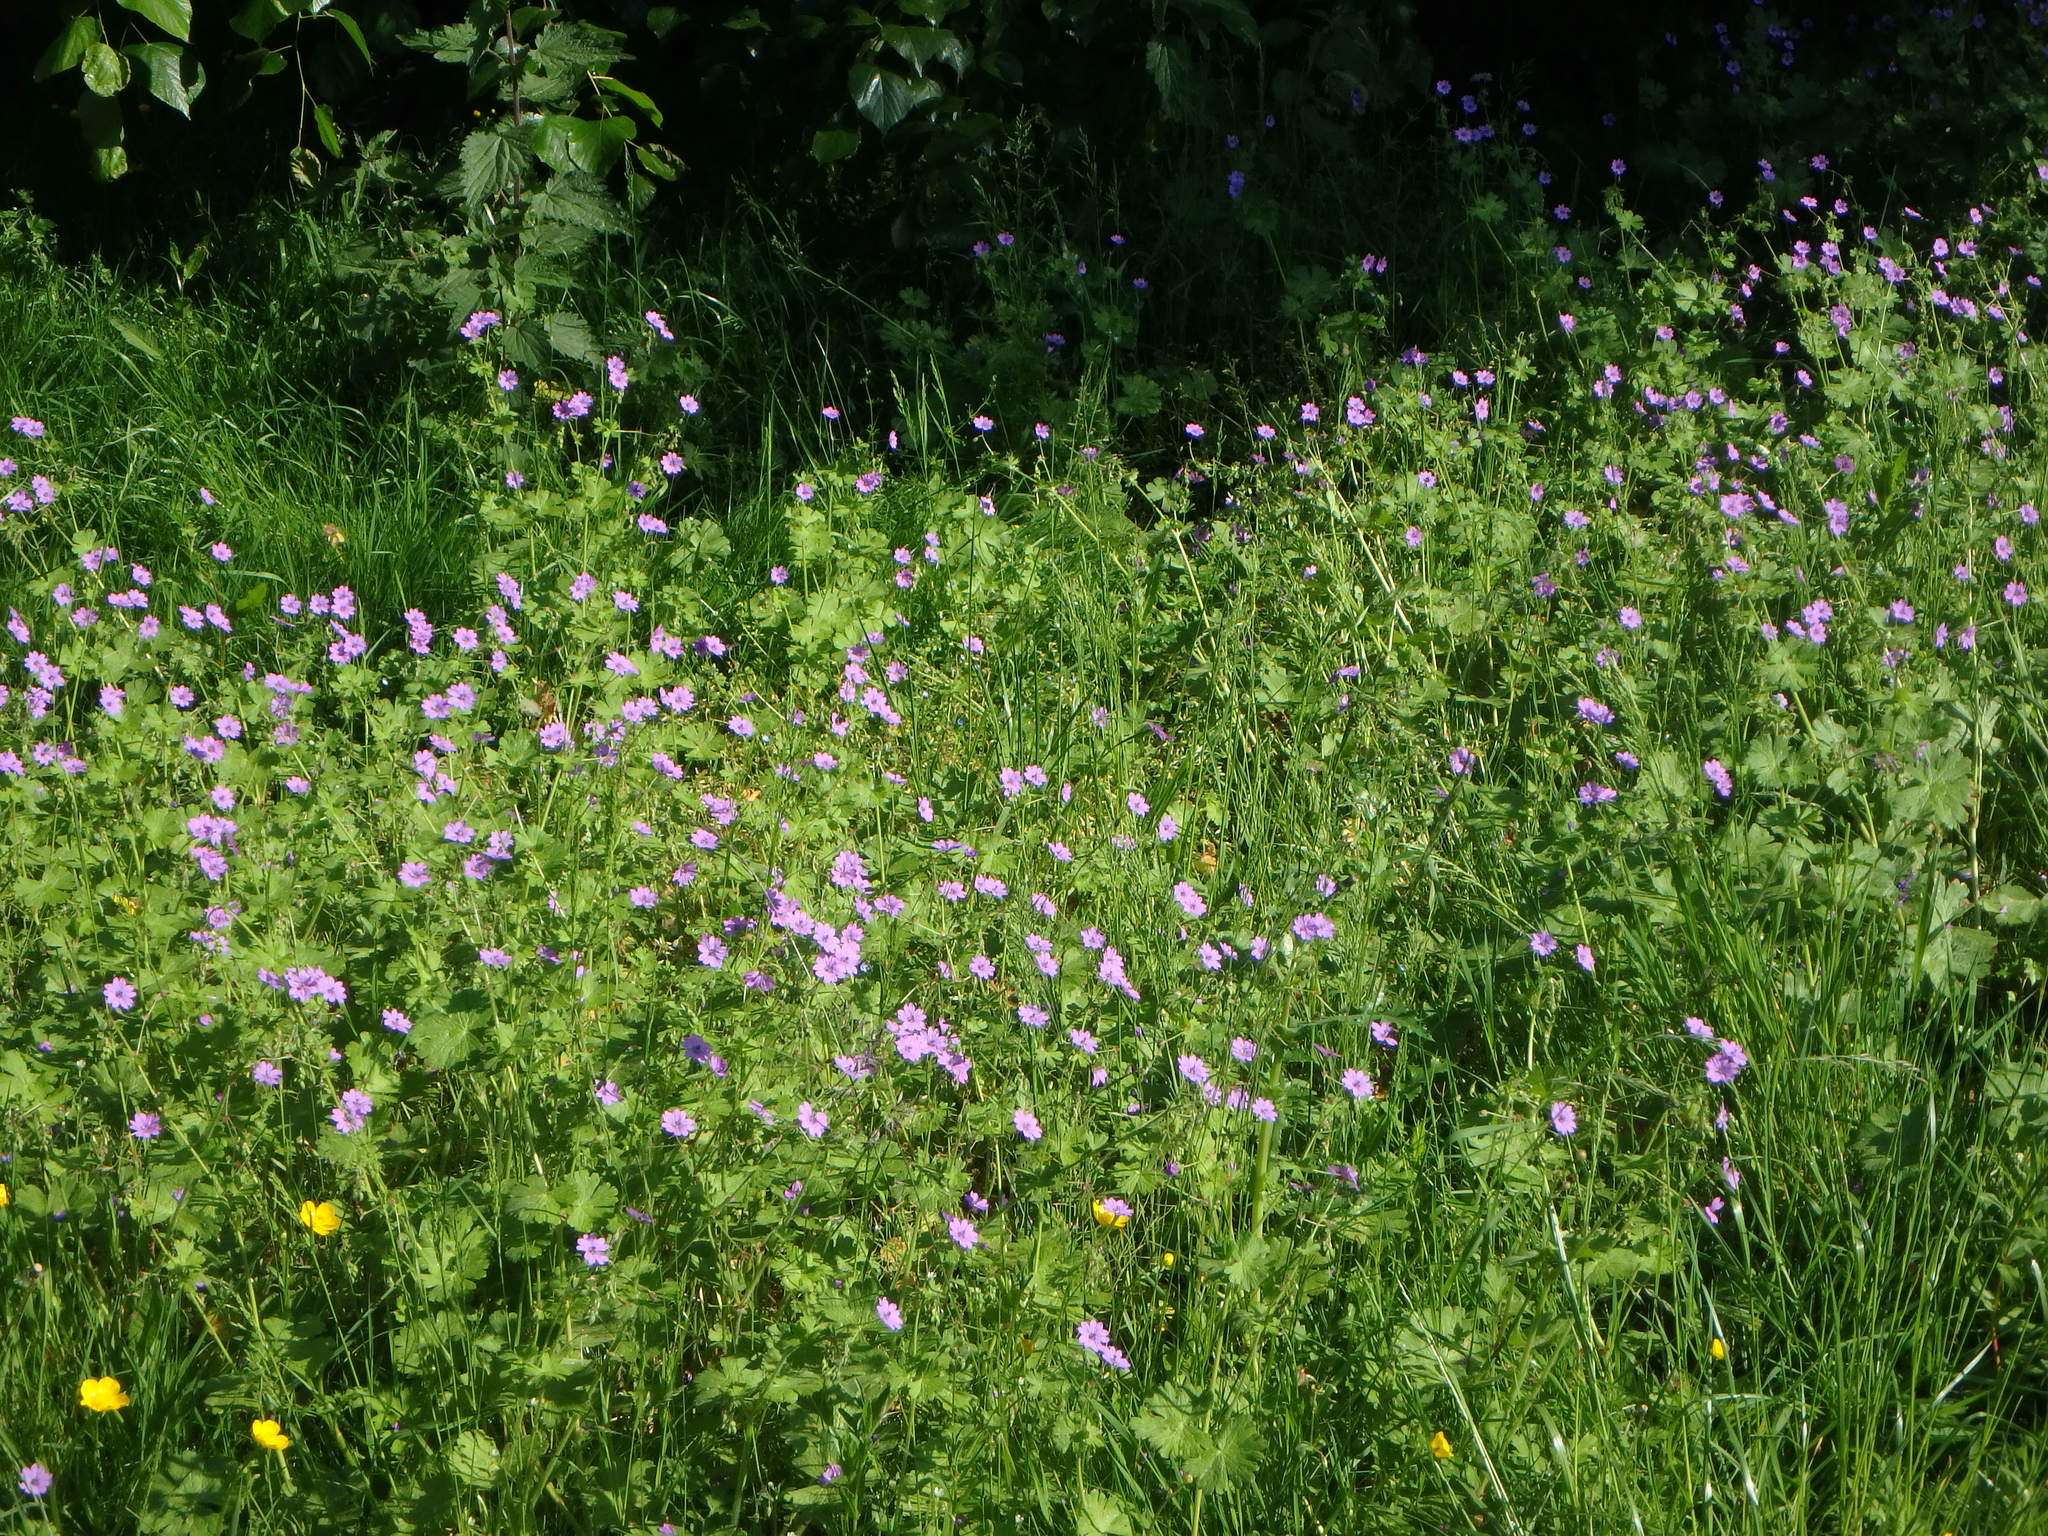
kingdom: Plantae
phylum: Tracheophyta
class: Magnoliopsida
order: Geraniales
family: Geraniaceae
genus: Geranium
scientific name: Geranium pyrenaicum
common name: Hedgerow crane's-bill
